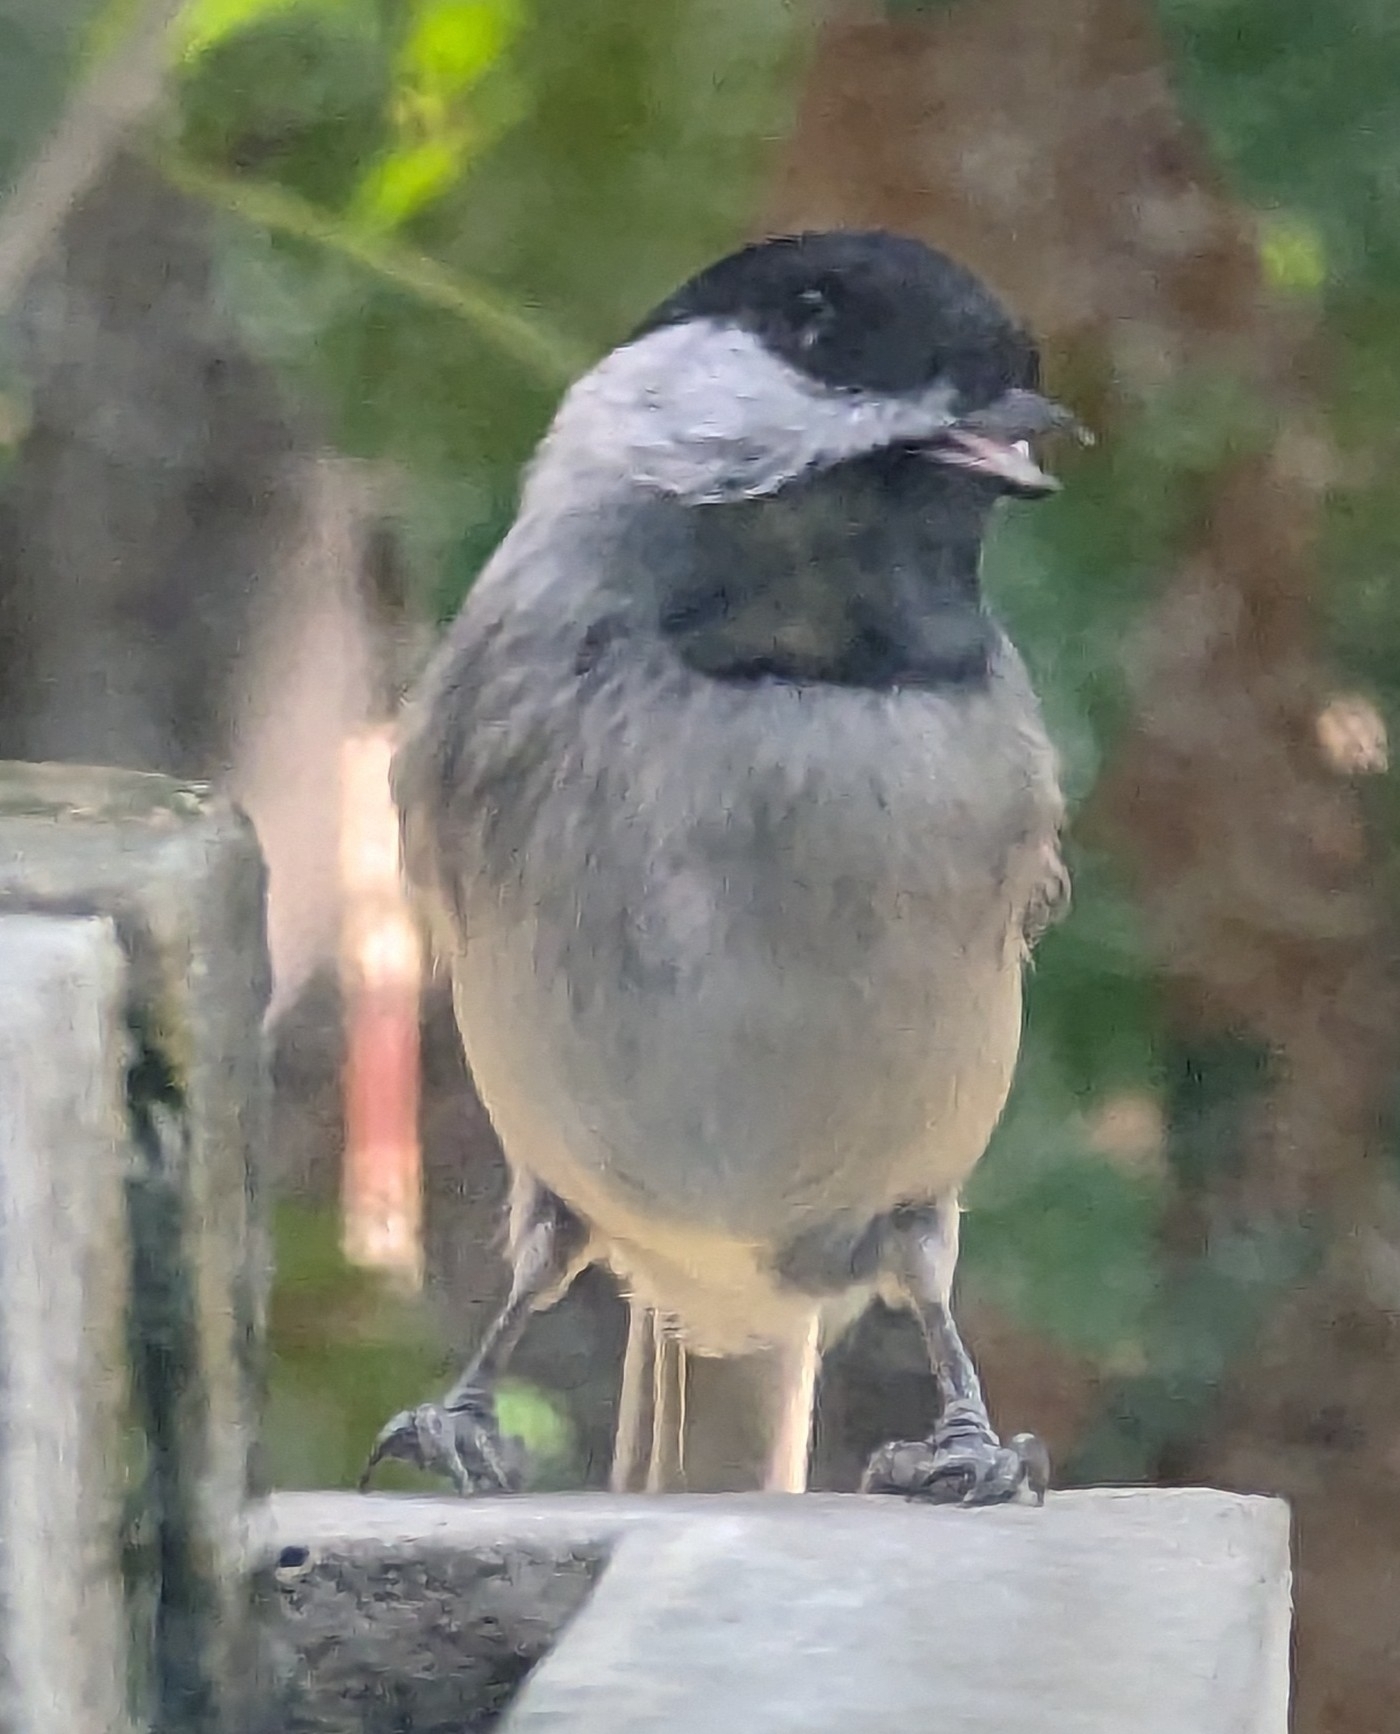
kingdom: Animalia
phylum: Chordata
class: Aves
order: Passeriformes
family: Paridae
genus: Poecile
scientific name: Poecile carolinensis
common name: Carolina chickadee
